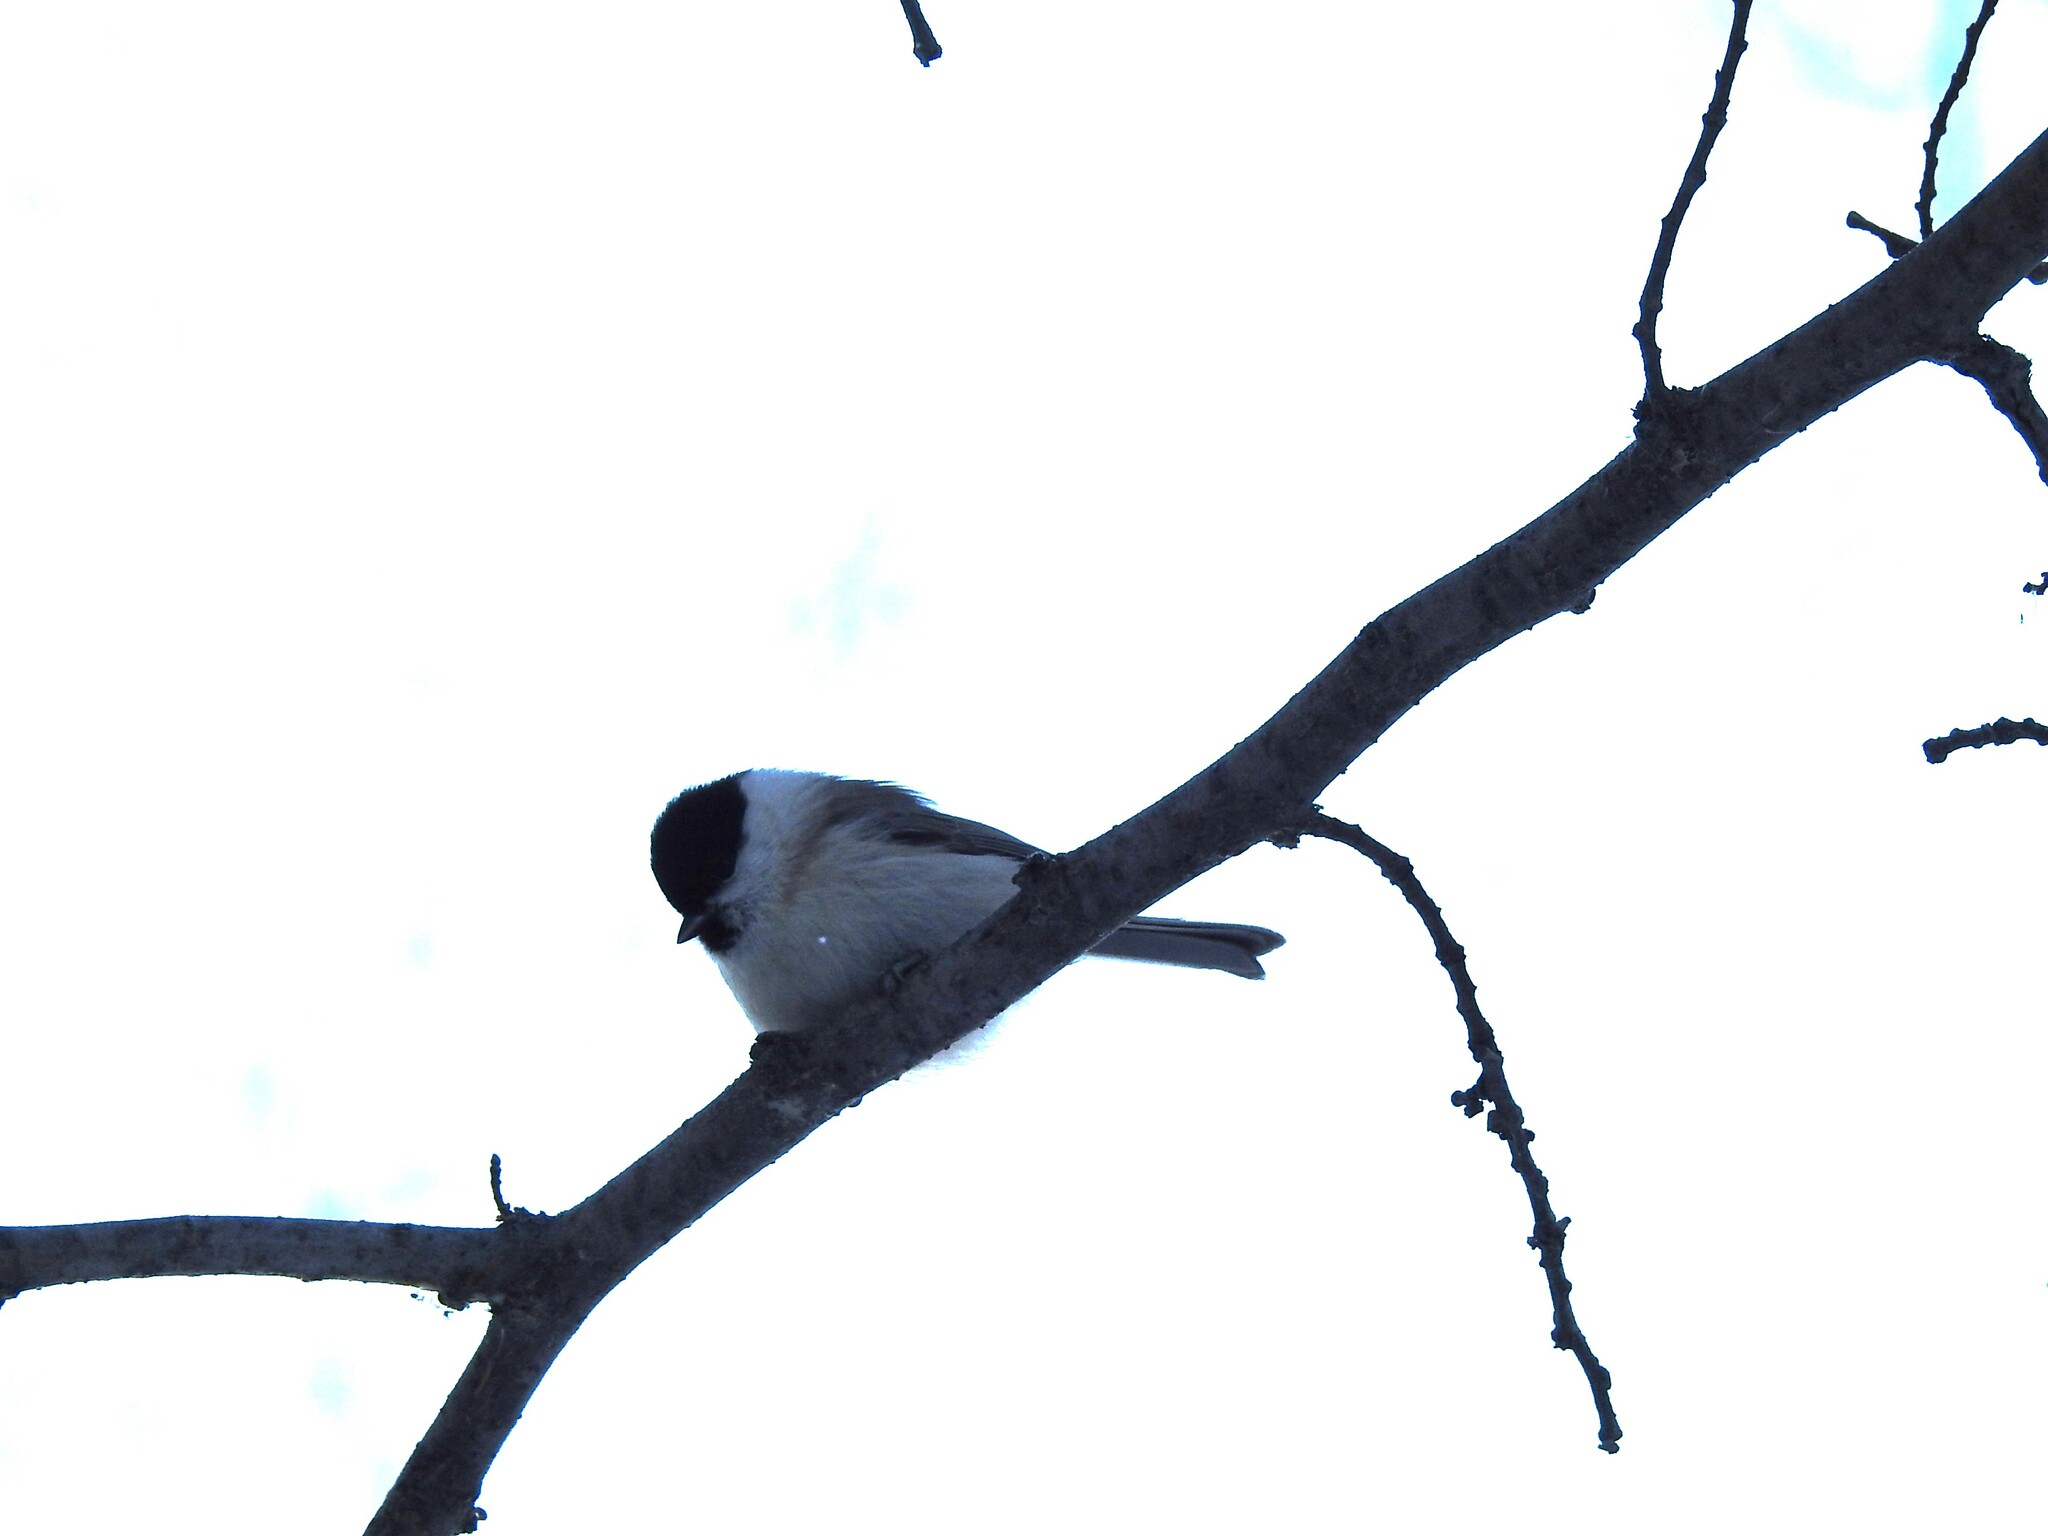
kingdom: Animalia
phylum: Chordata
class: Aves
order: Passeriformes
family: Paridae
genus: Poecile
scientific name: Poecile palustris
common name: Marsh tit
